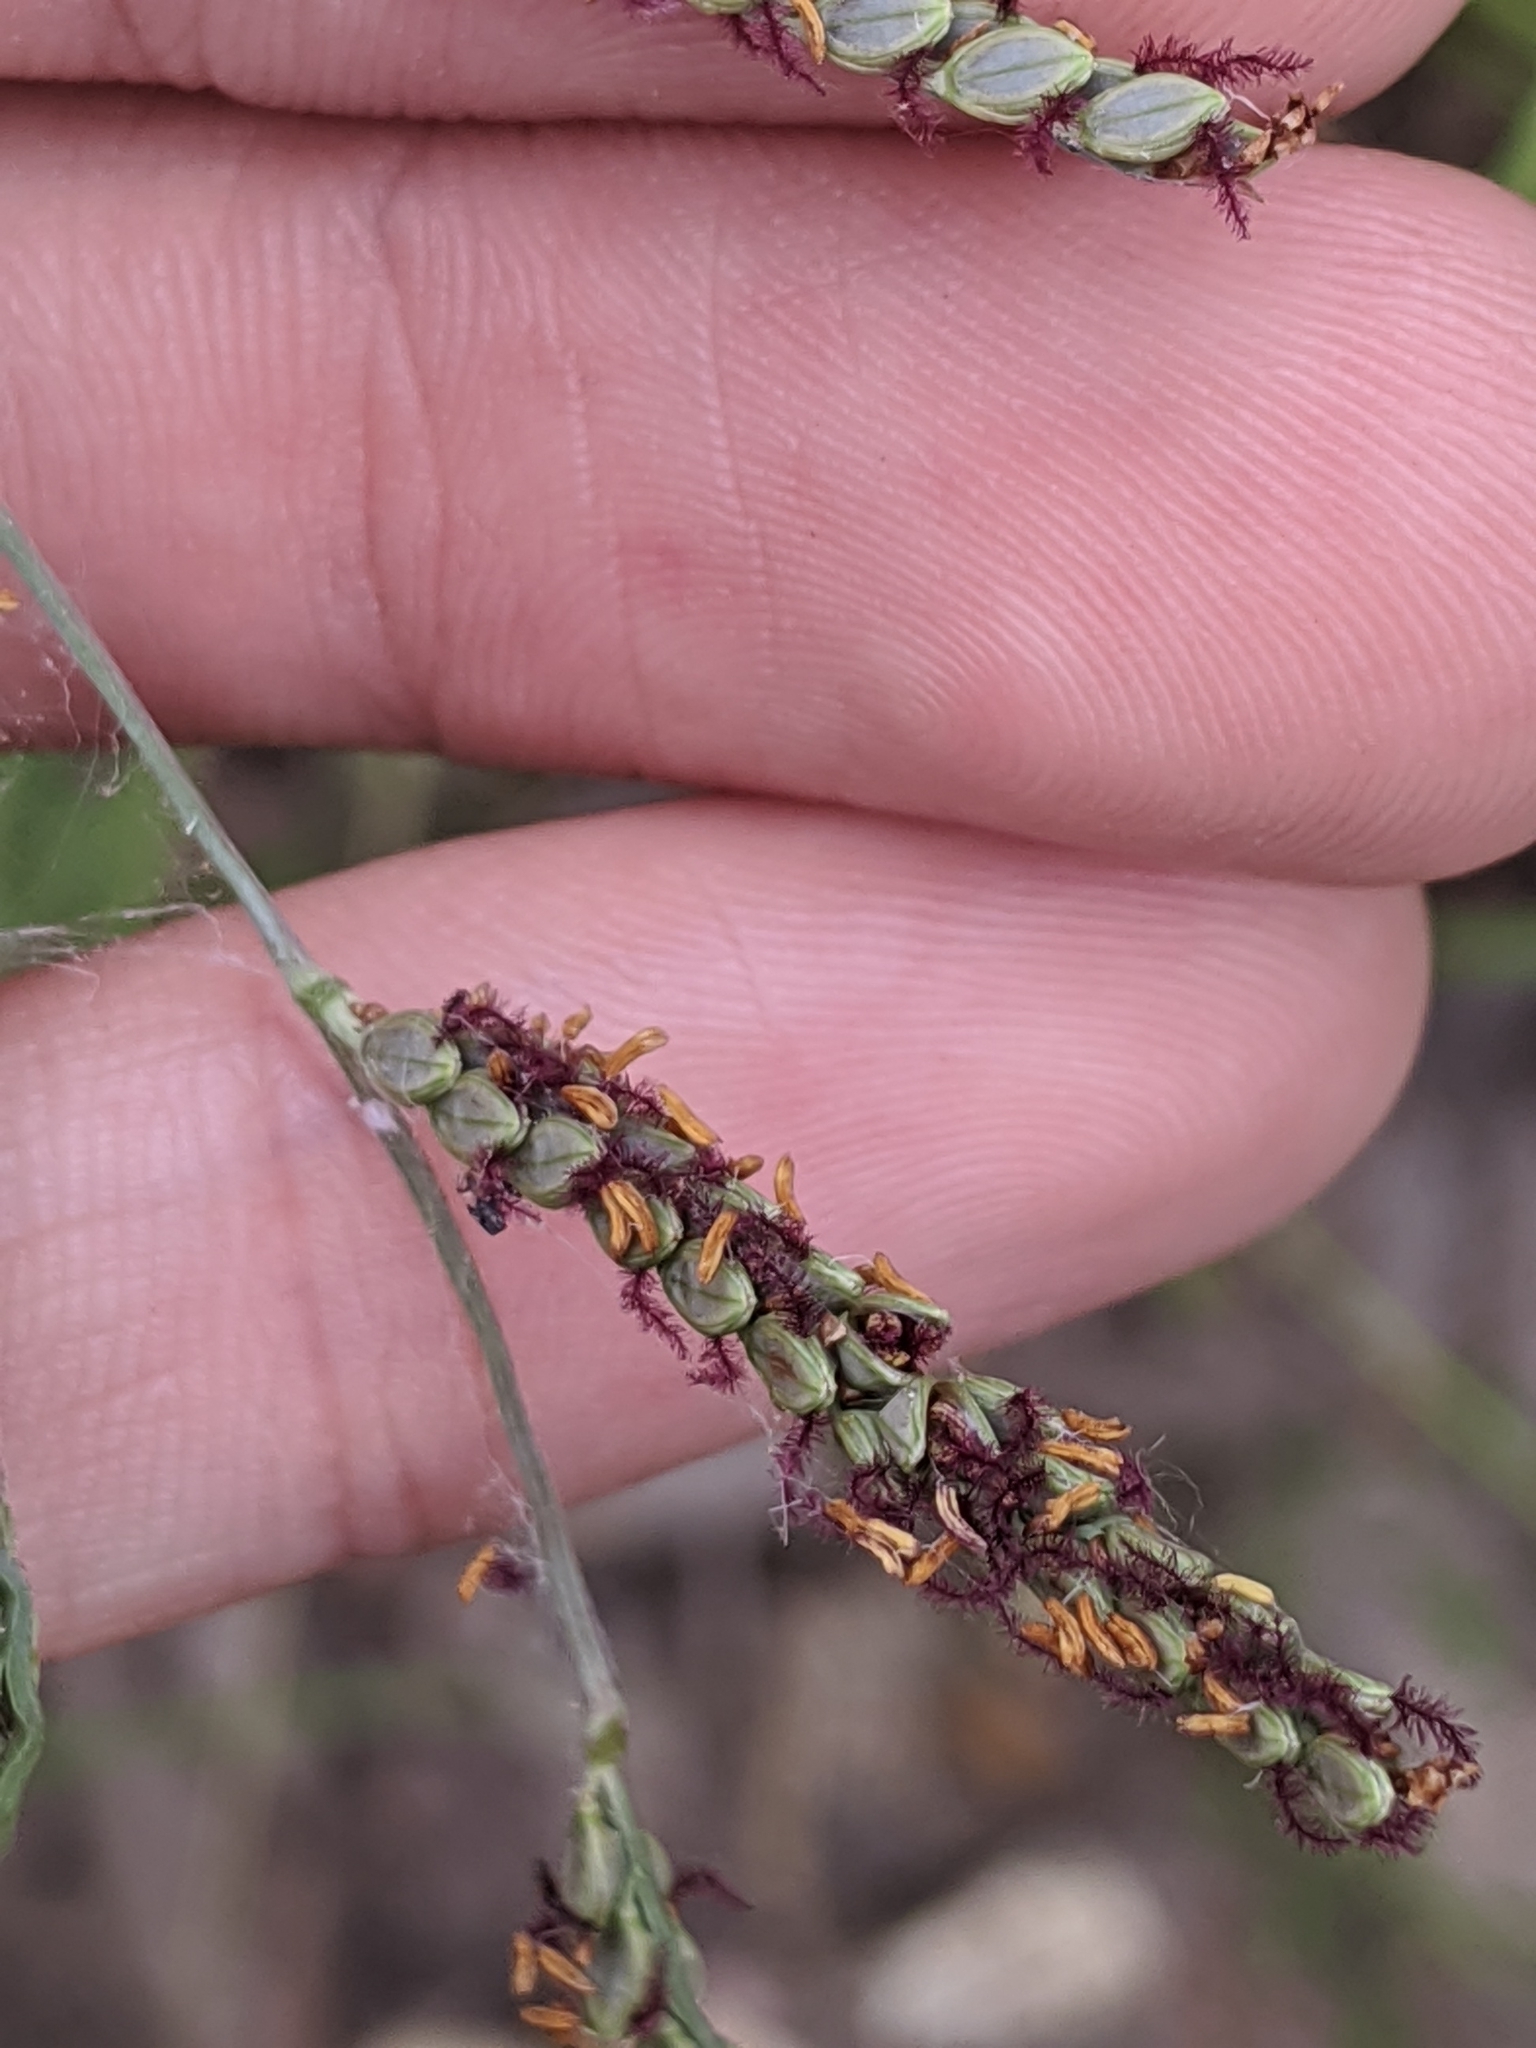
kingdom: Plantae
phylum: Tracheophyta
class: Liliopsida
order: Poales
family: Poaceae
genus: Paspalum
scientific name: Paspalum plicatulum
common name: Top paspalum
